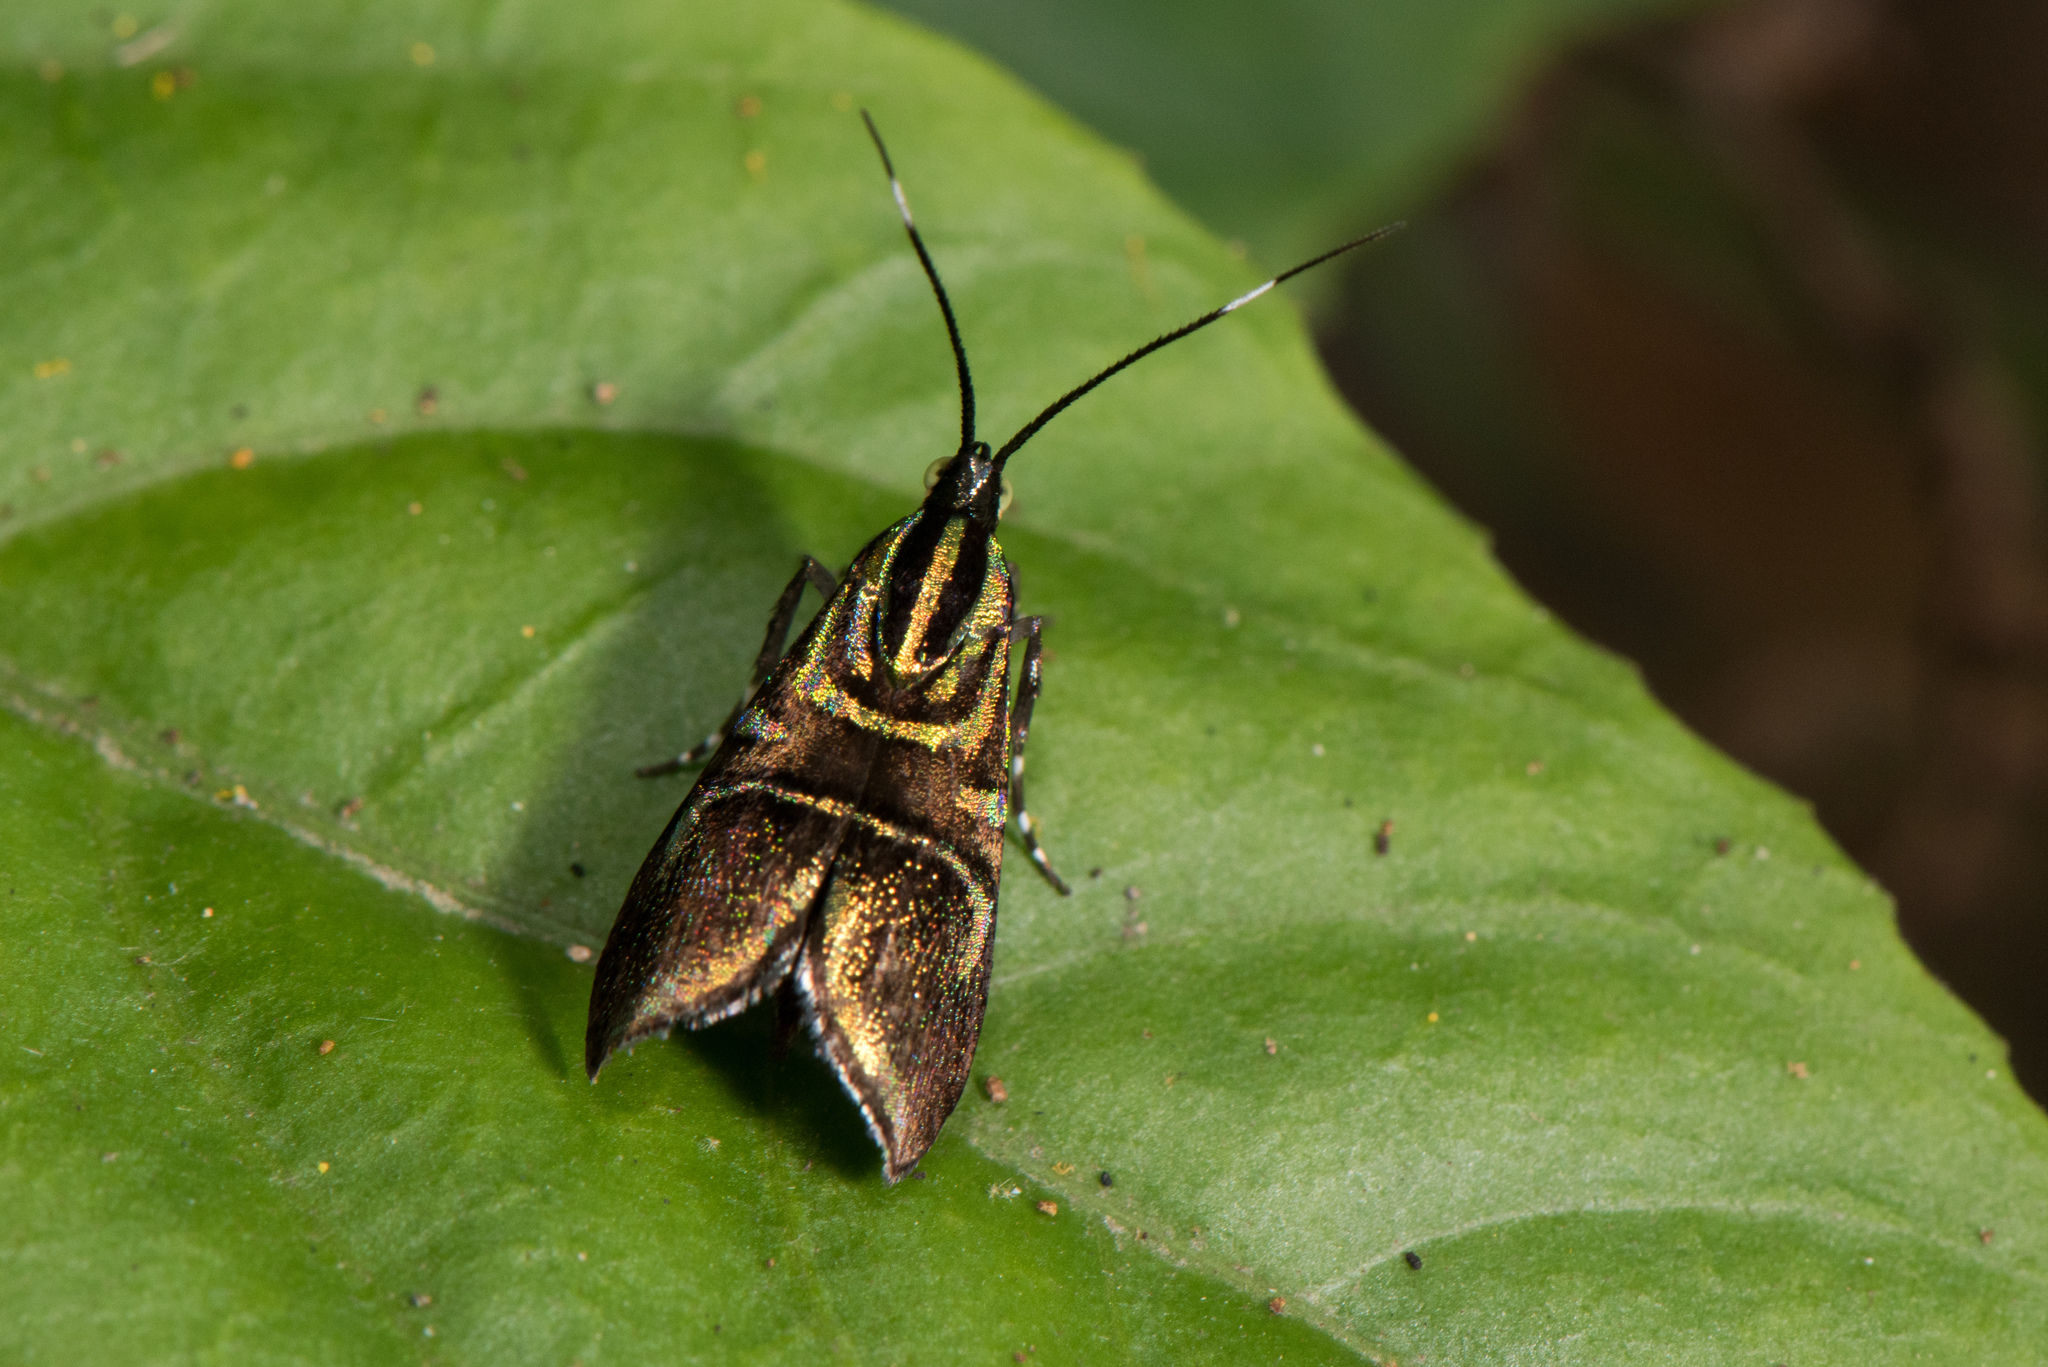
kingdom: Animalia
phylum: Arthropoda
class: Insecta
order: Lepidoptera
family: Choreutidae
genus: Saptha
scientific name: Saptha divitiosa
